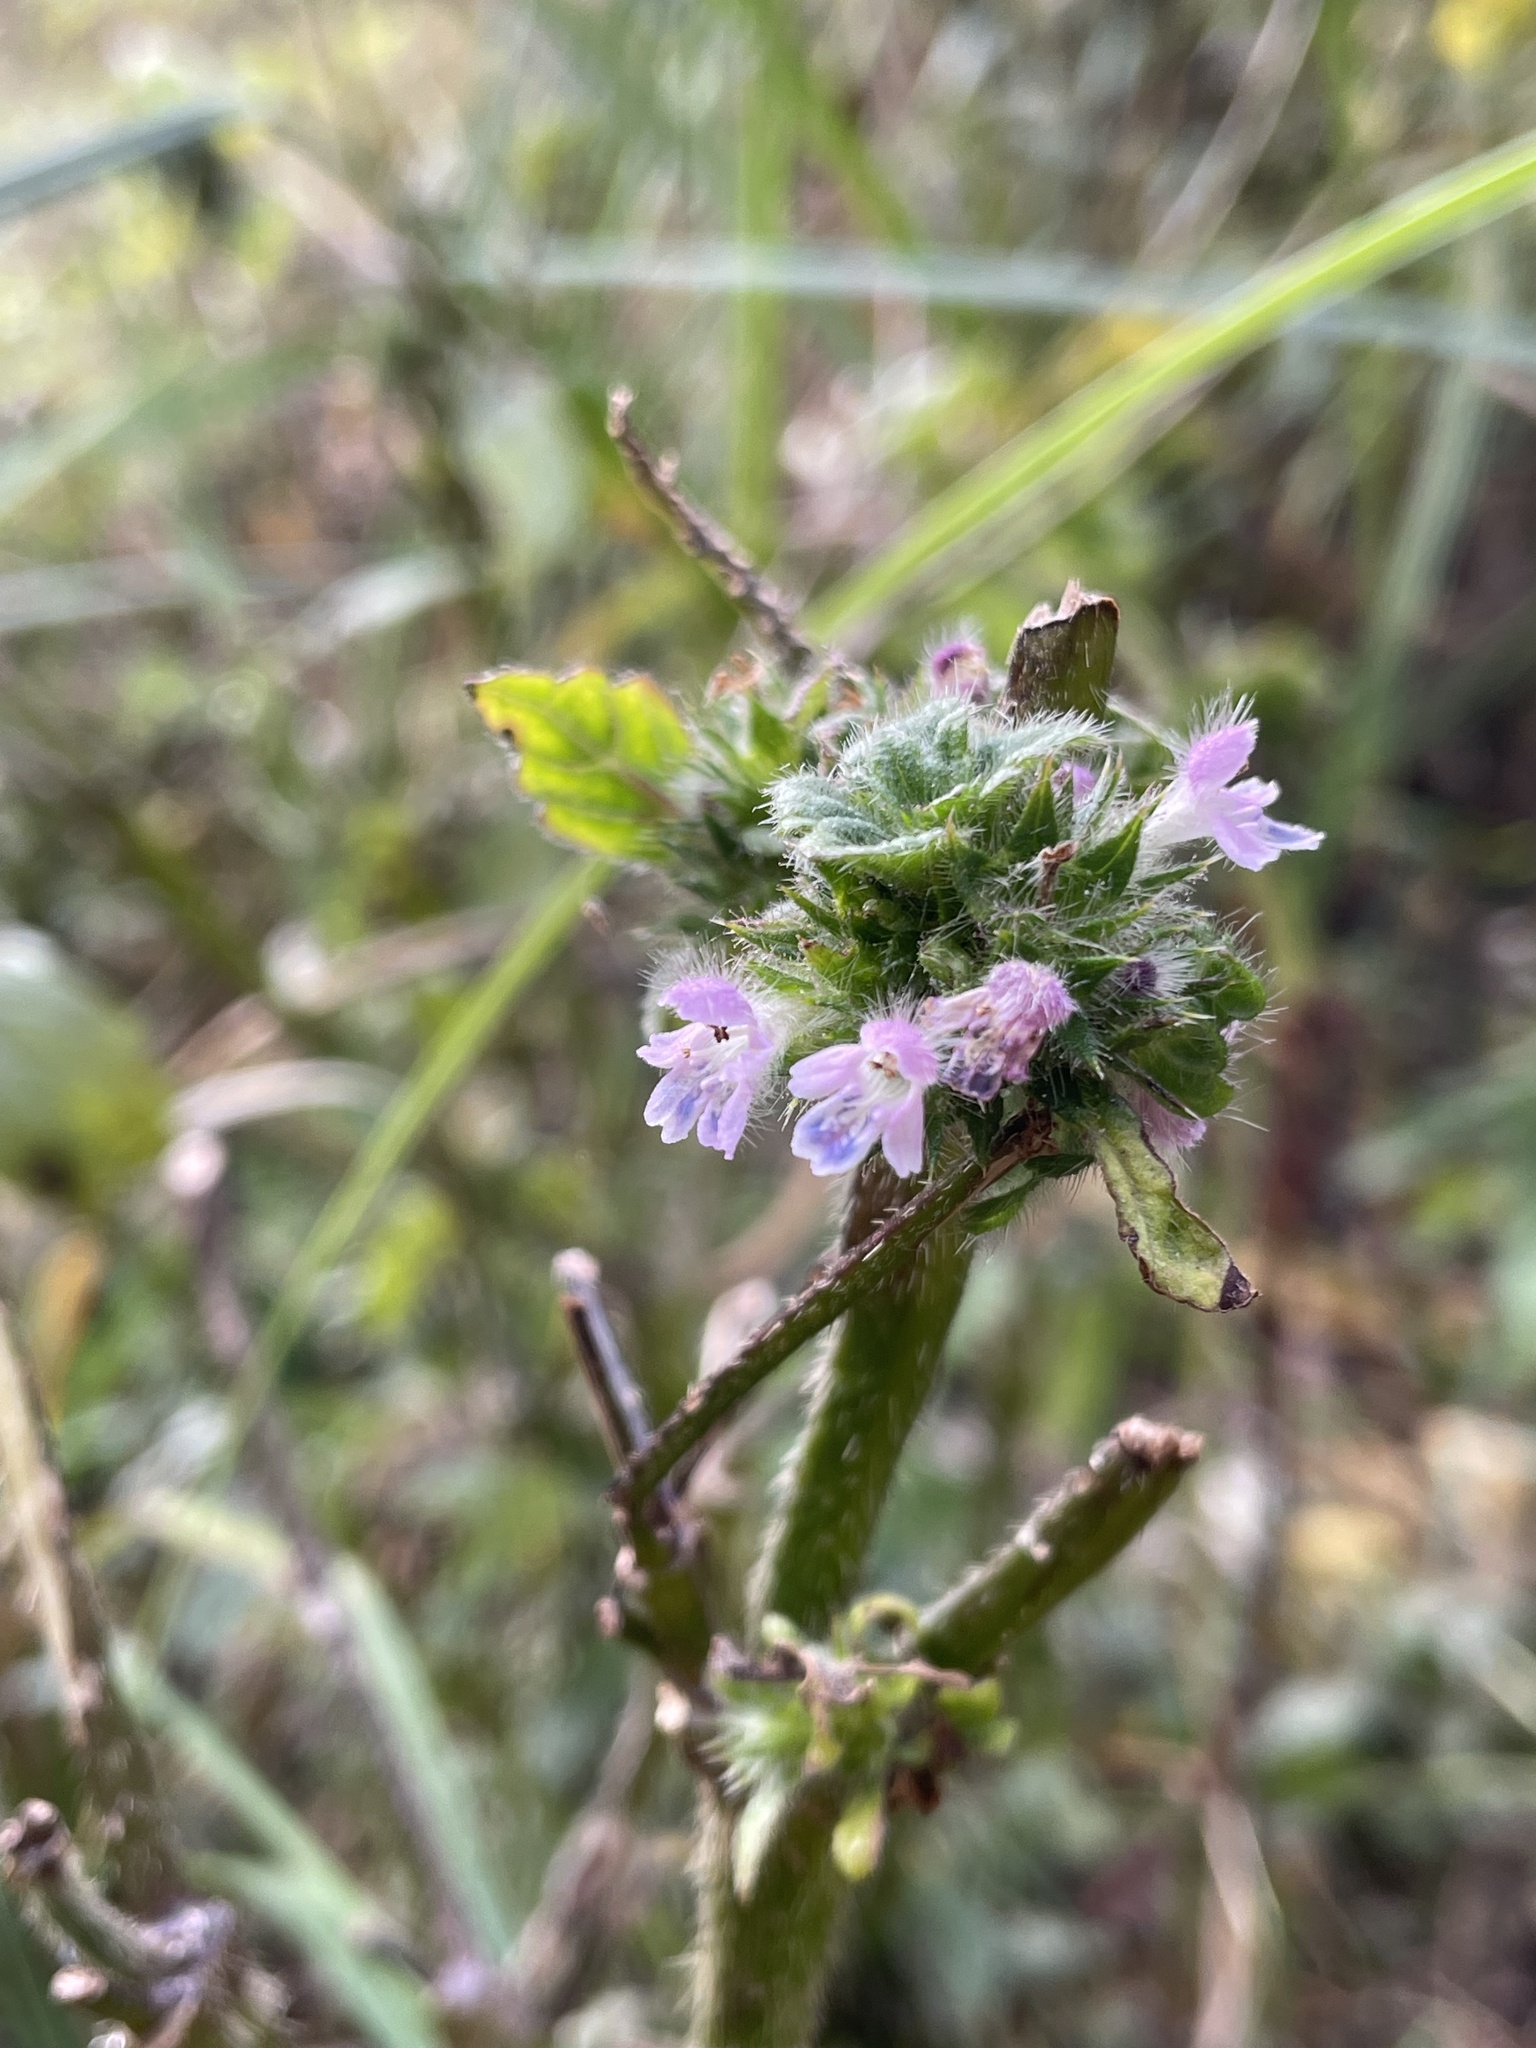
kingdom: Plantae
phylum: Tracheophyta
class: Magnoliopsida
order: Lamiales
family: Lamiaceae
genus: Galeopsis
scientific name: Galeopsis bifida
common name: Bifid hemp-nettle
